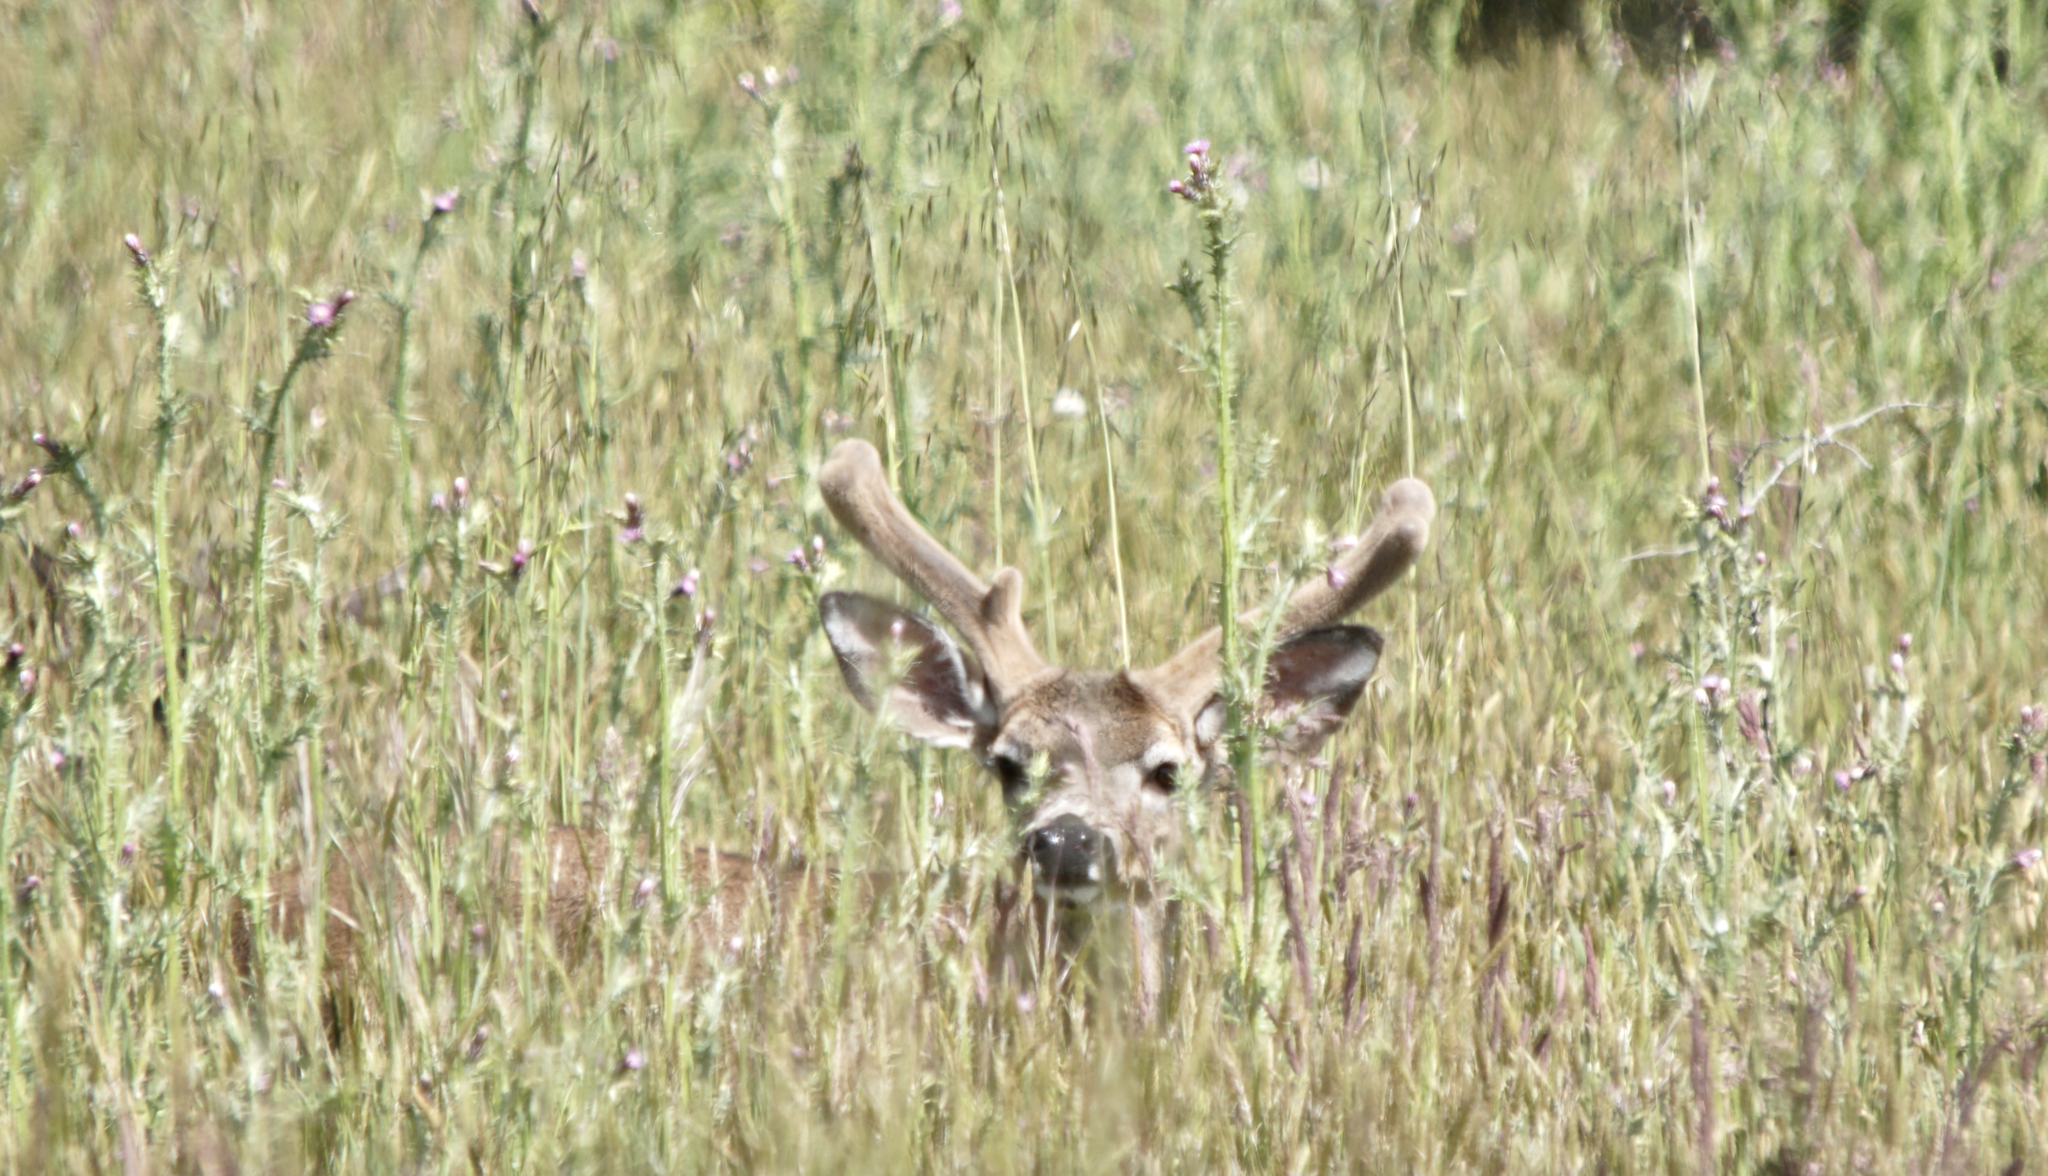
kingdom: Animalia
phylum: Chordata
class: Mammalia
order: Artiodactyla
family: Cervidae
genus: Odocoileus
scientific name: Odocoileus hemionus
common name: Mule deer
